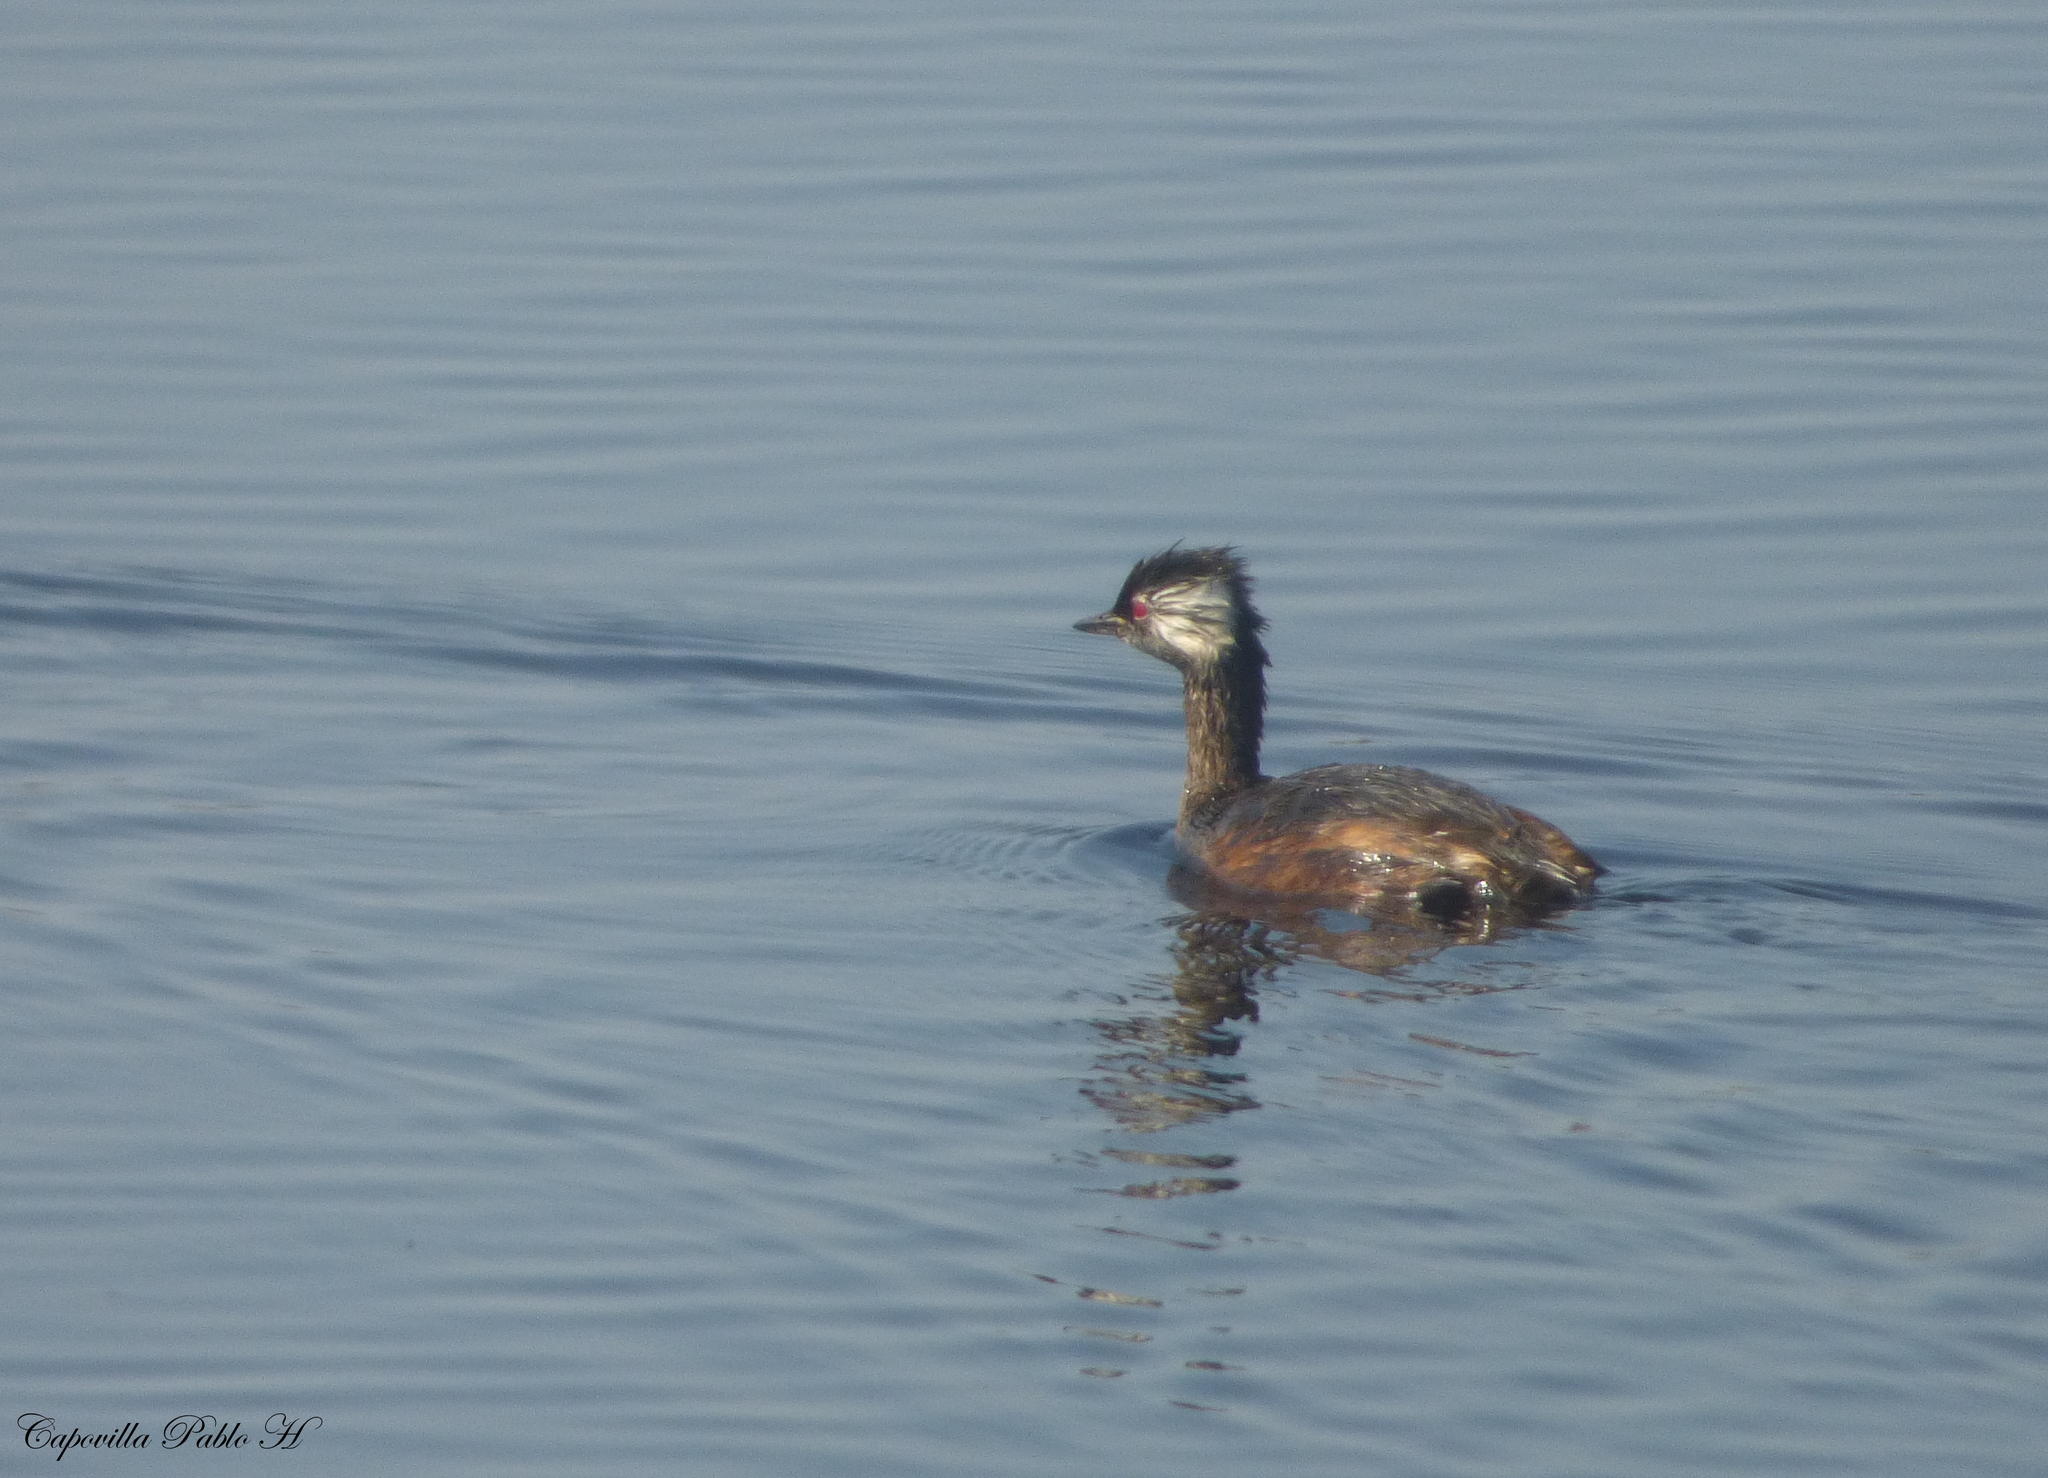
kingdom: Animalia
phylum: Chordata
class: Aves
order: Podicipediformes
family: Podicipedidae
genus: Rollandia
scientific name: Rollandia rolland
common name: White-tufted grebe
